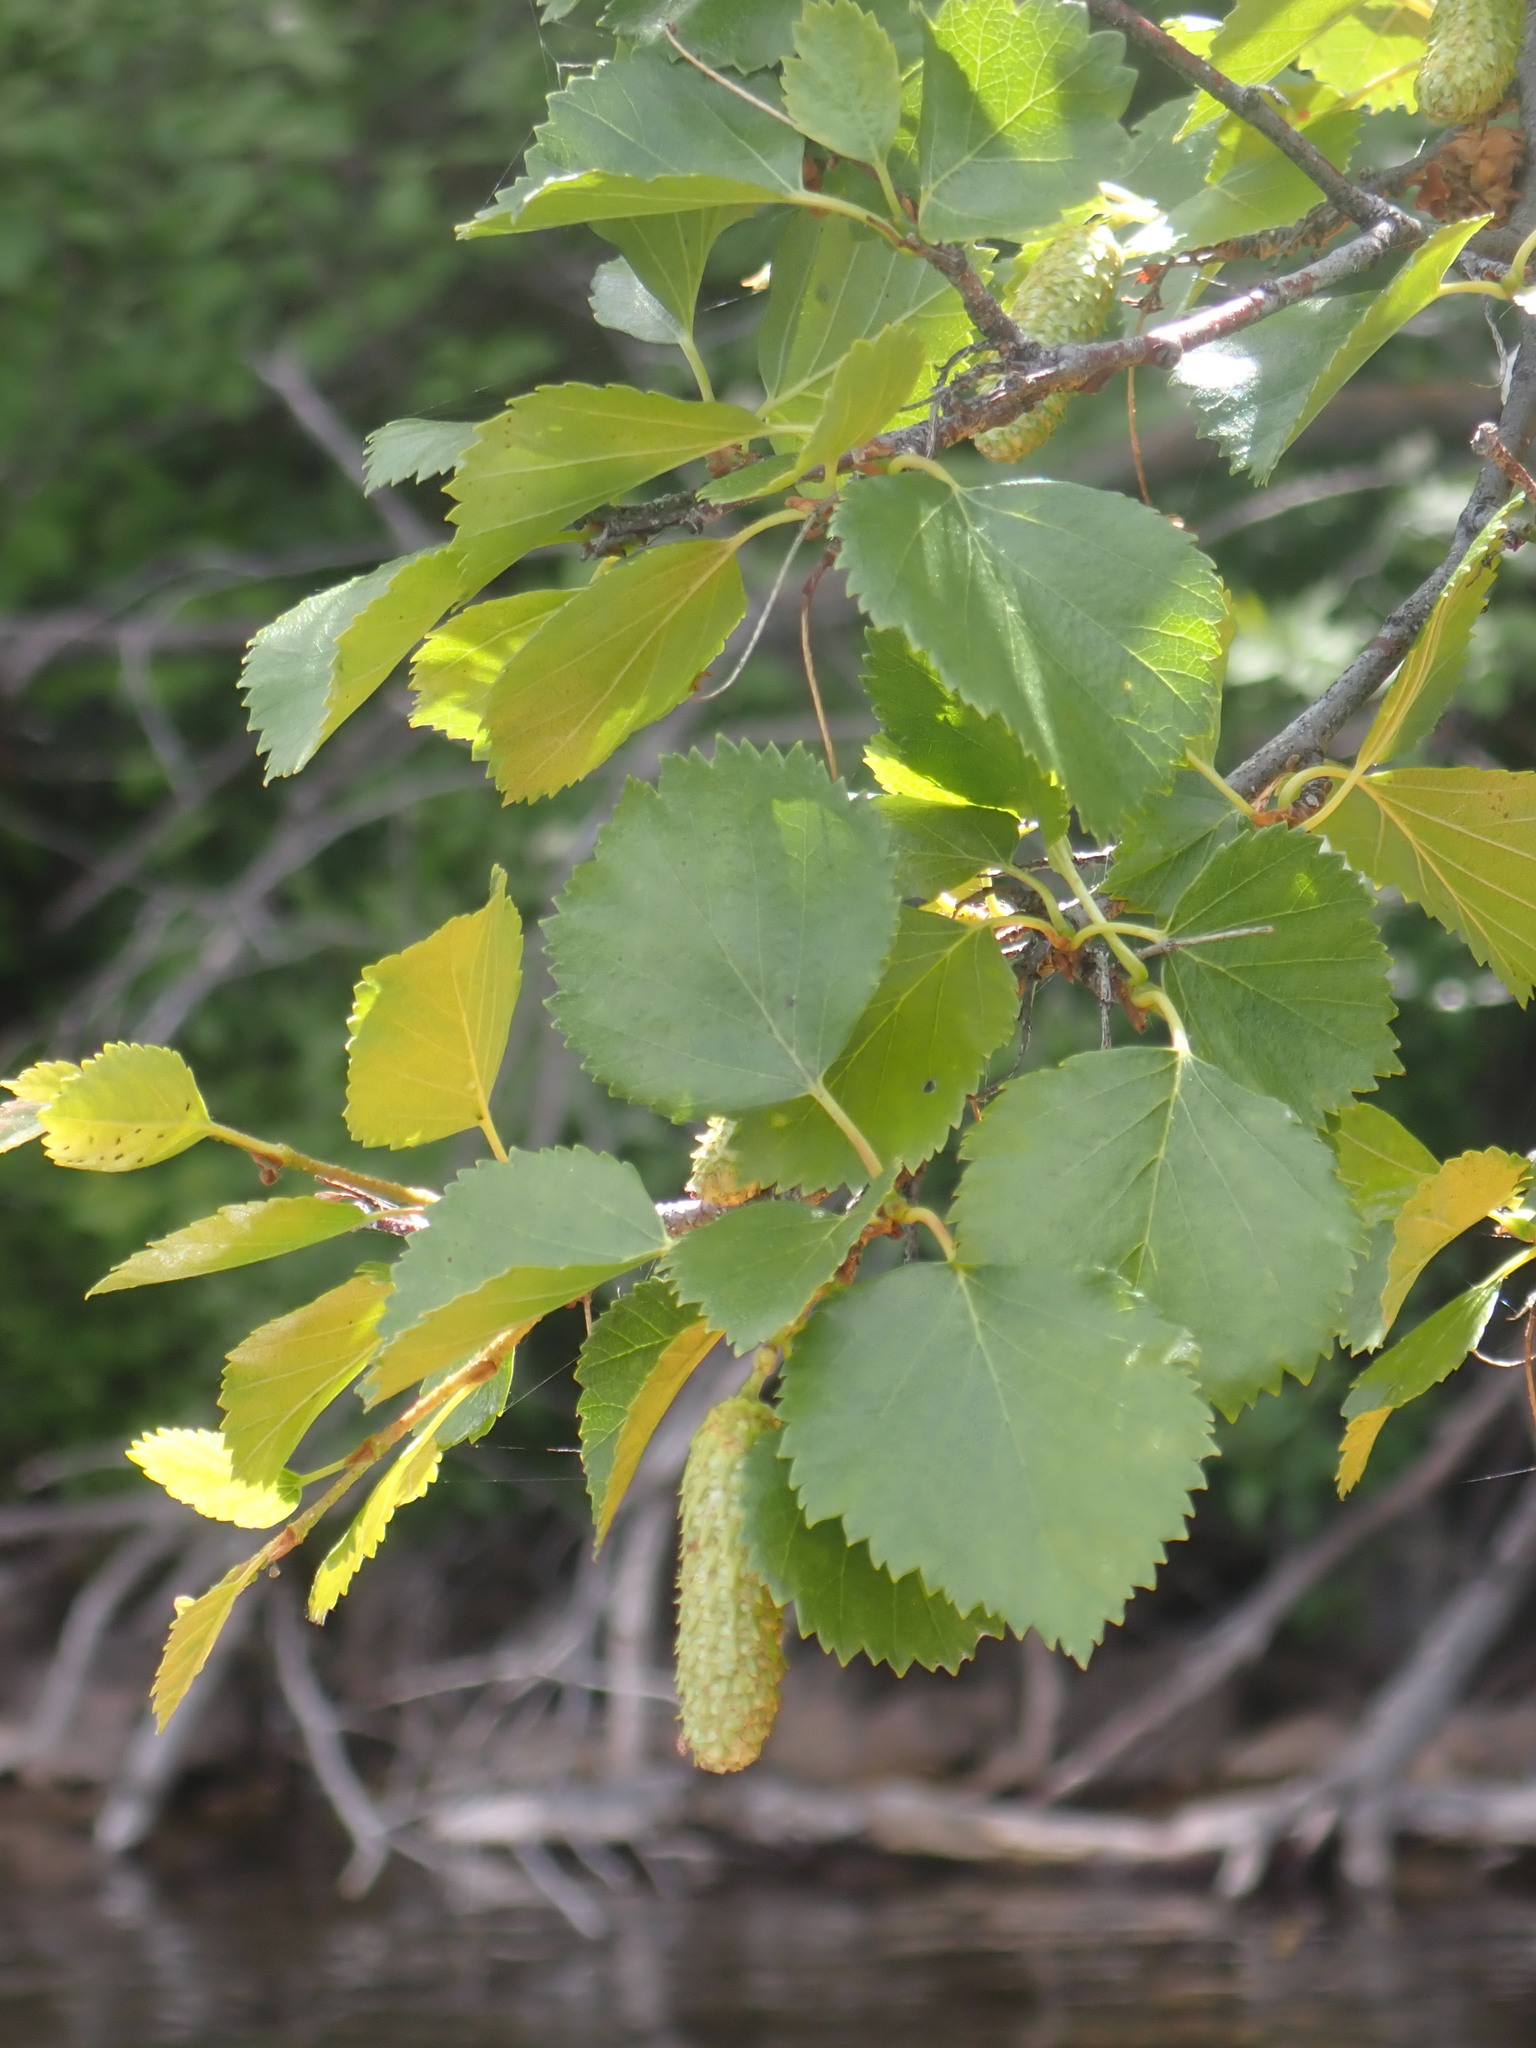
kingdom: Plantae
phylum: Tracheophyta
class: Magnoliopsida
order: Fagales
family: Betulaceae
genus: Betula
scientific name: Betula occidentalis
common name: River birch
